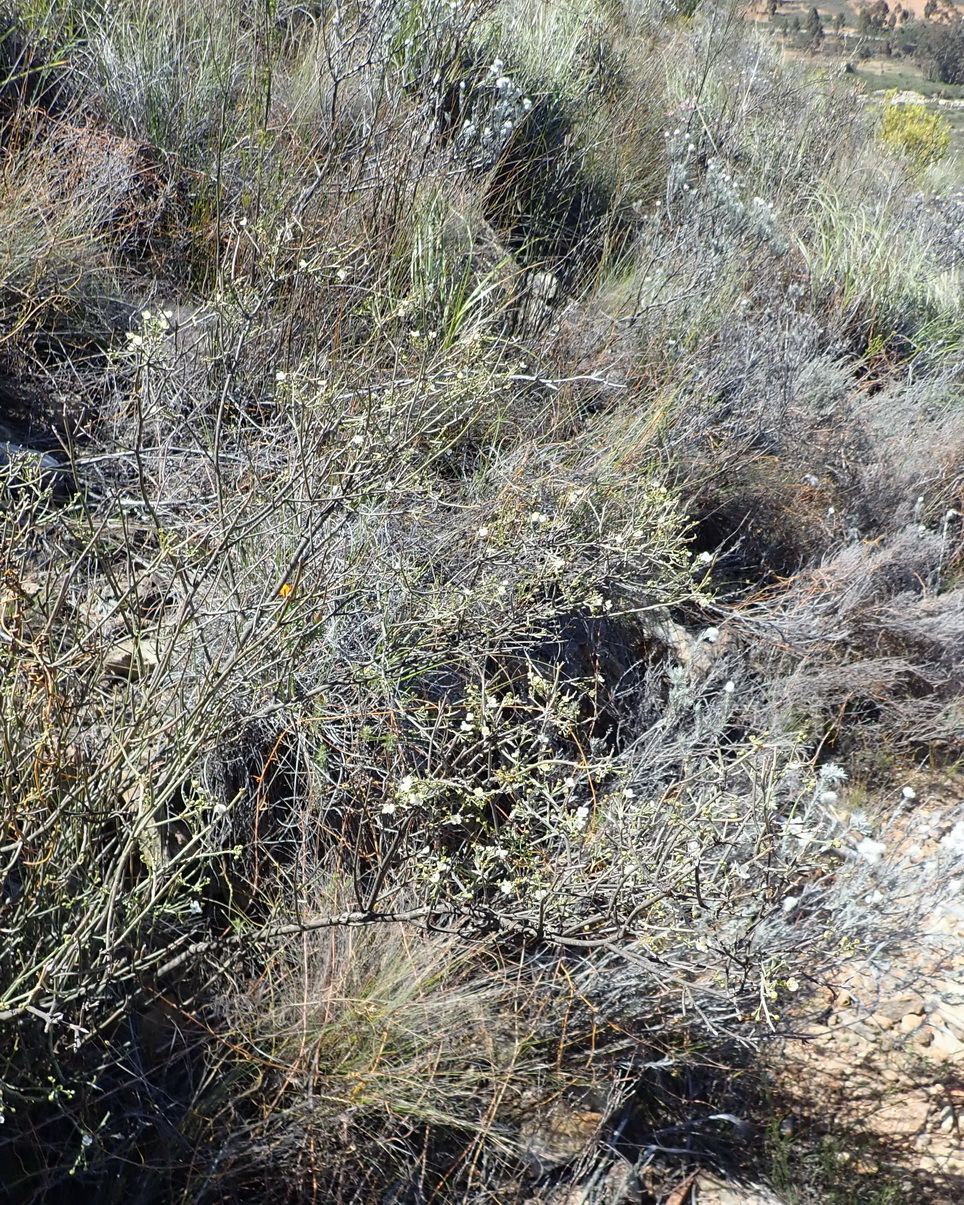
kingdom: Plantae
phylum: Tracheophyta
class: Magnoliopsida
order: Solanales
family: Montiniaceae
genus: Montinia
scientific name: Montinia caryophyllacea
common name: Wild clove-bush
